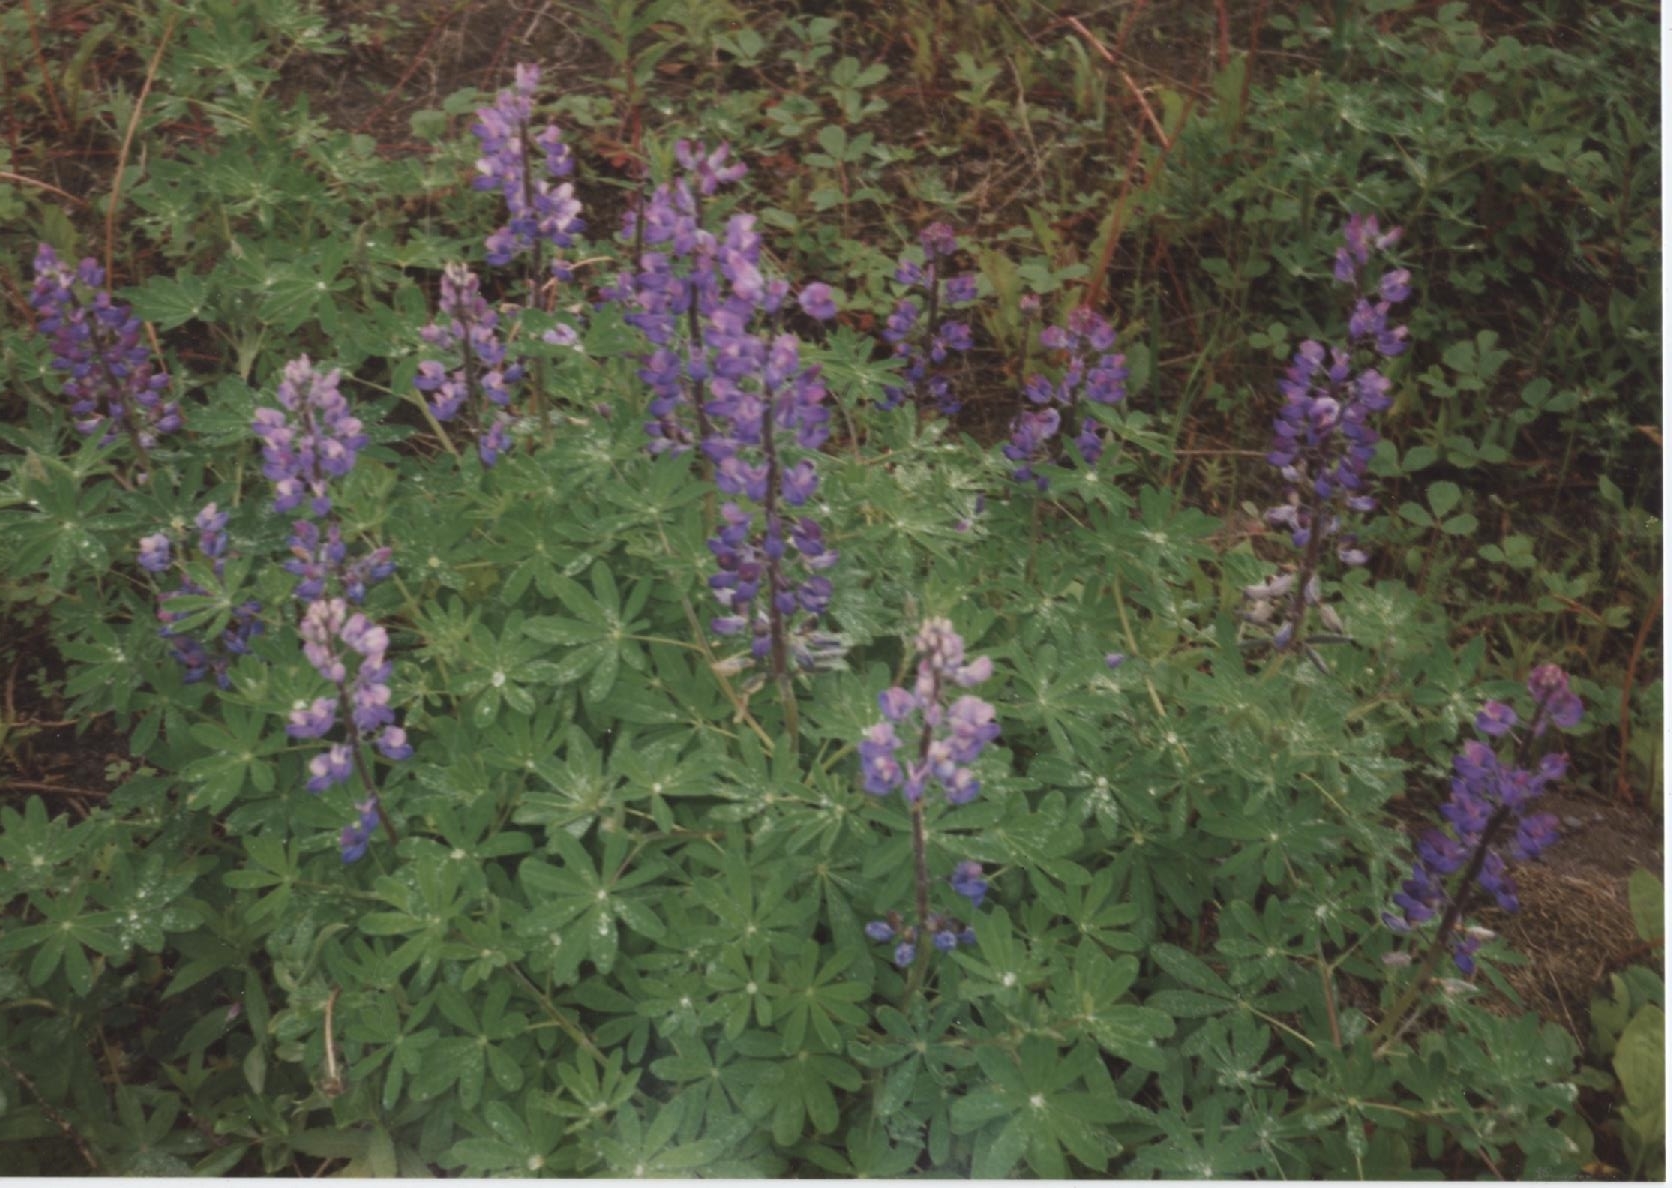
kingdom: Plantae
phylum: Tracheophyta
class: Magnoliopsida
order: Fabales
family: Fabaceae
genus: Lupinus
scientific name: Lupinus nootkatensis
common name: Nootka lupine
